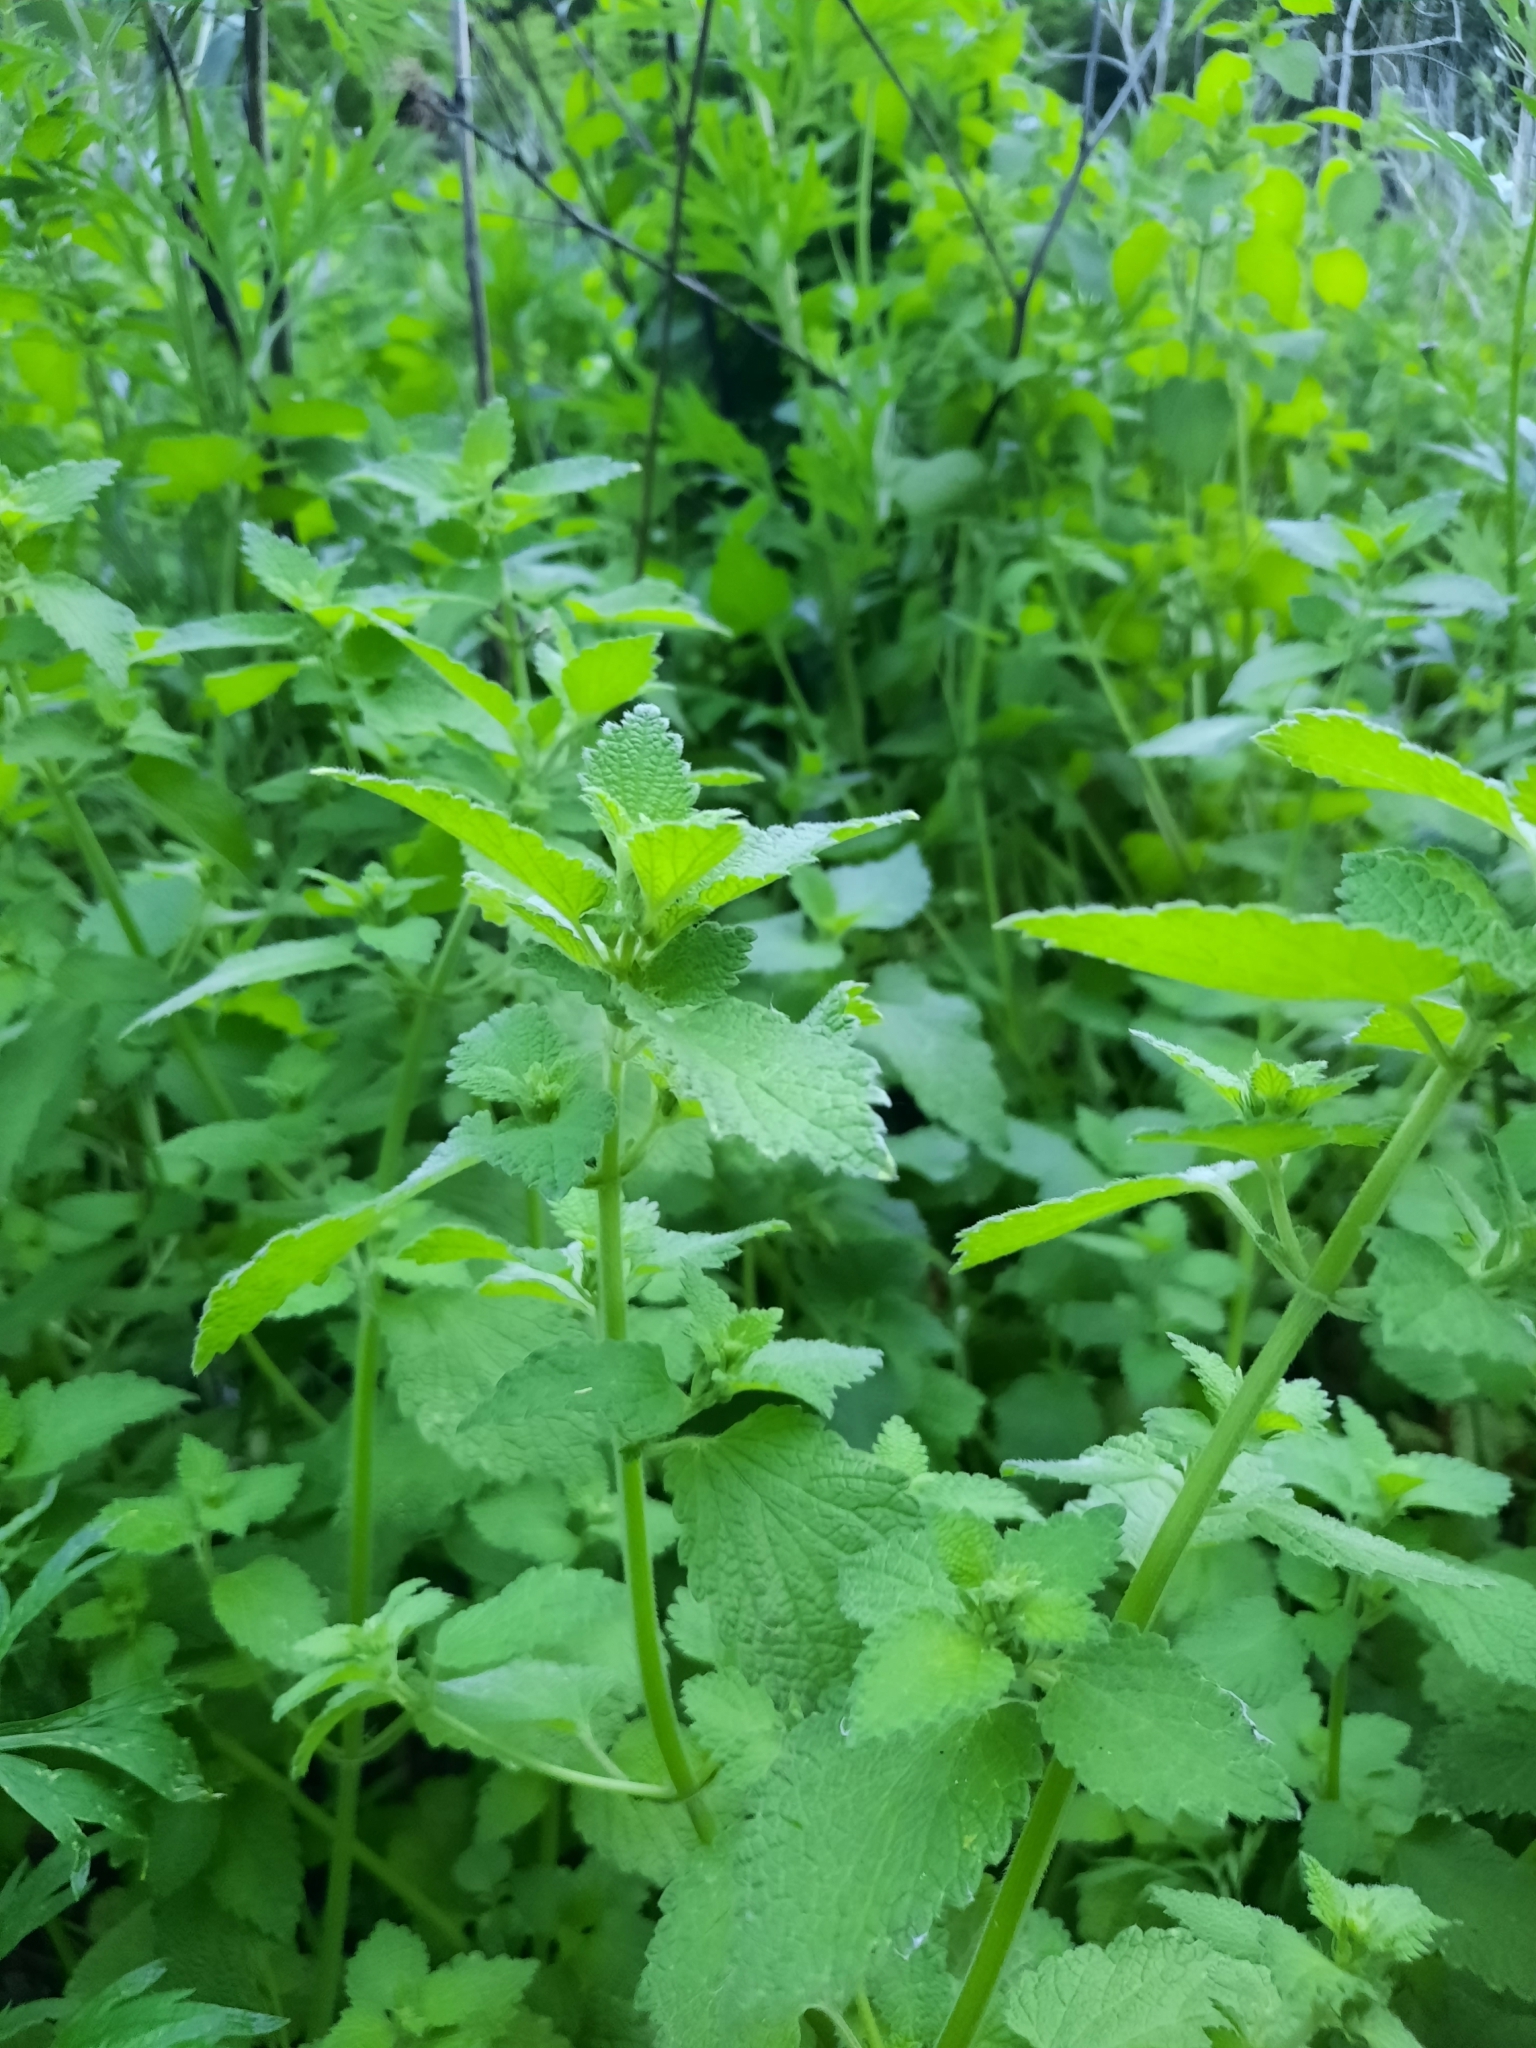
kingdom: Plantae
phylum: Tracheophyta
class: Magnoliopsida
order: Lamiales
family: Lamiaceae
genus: Ballota
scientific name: Ballota nigra
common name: Black horehound
